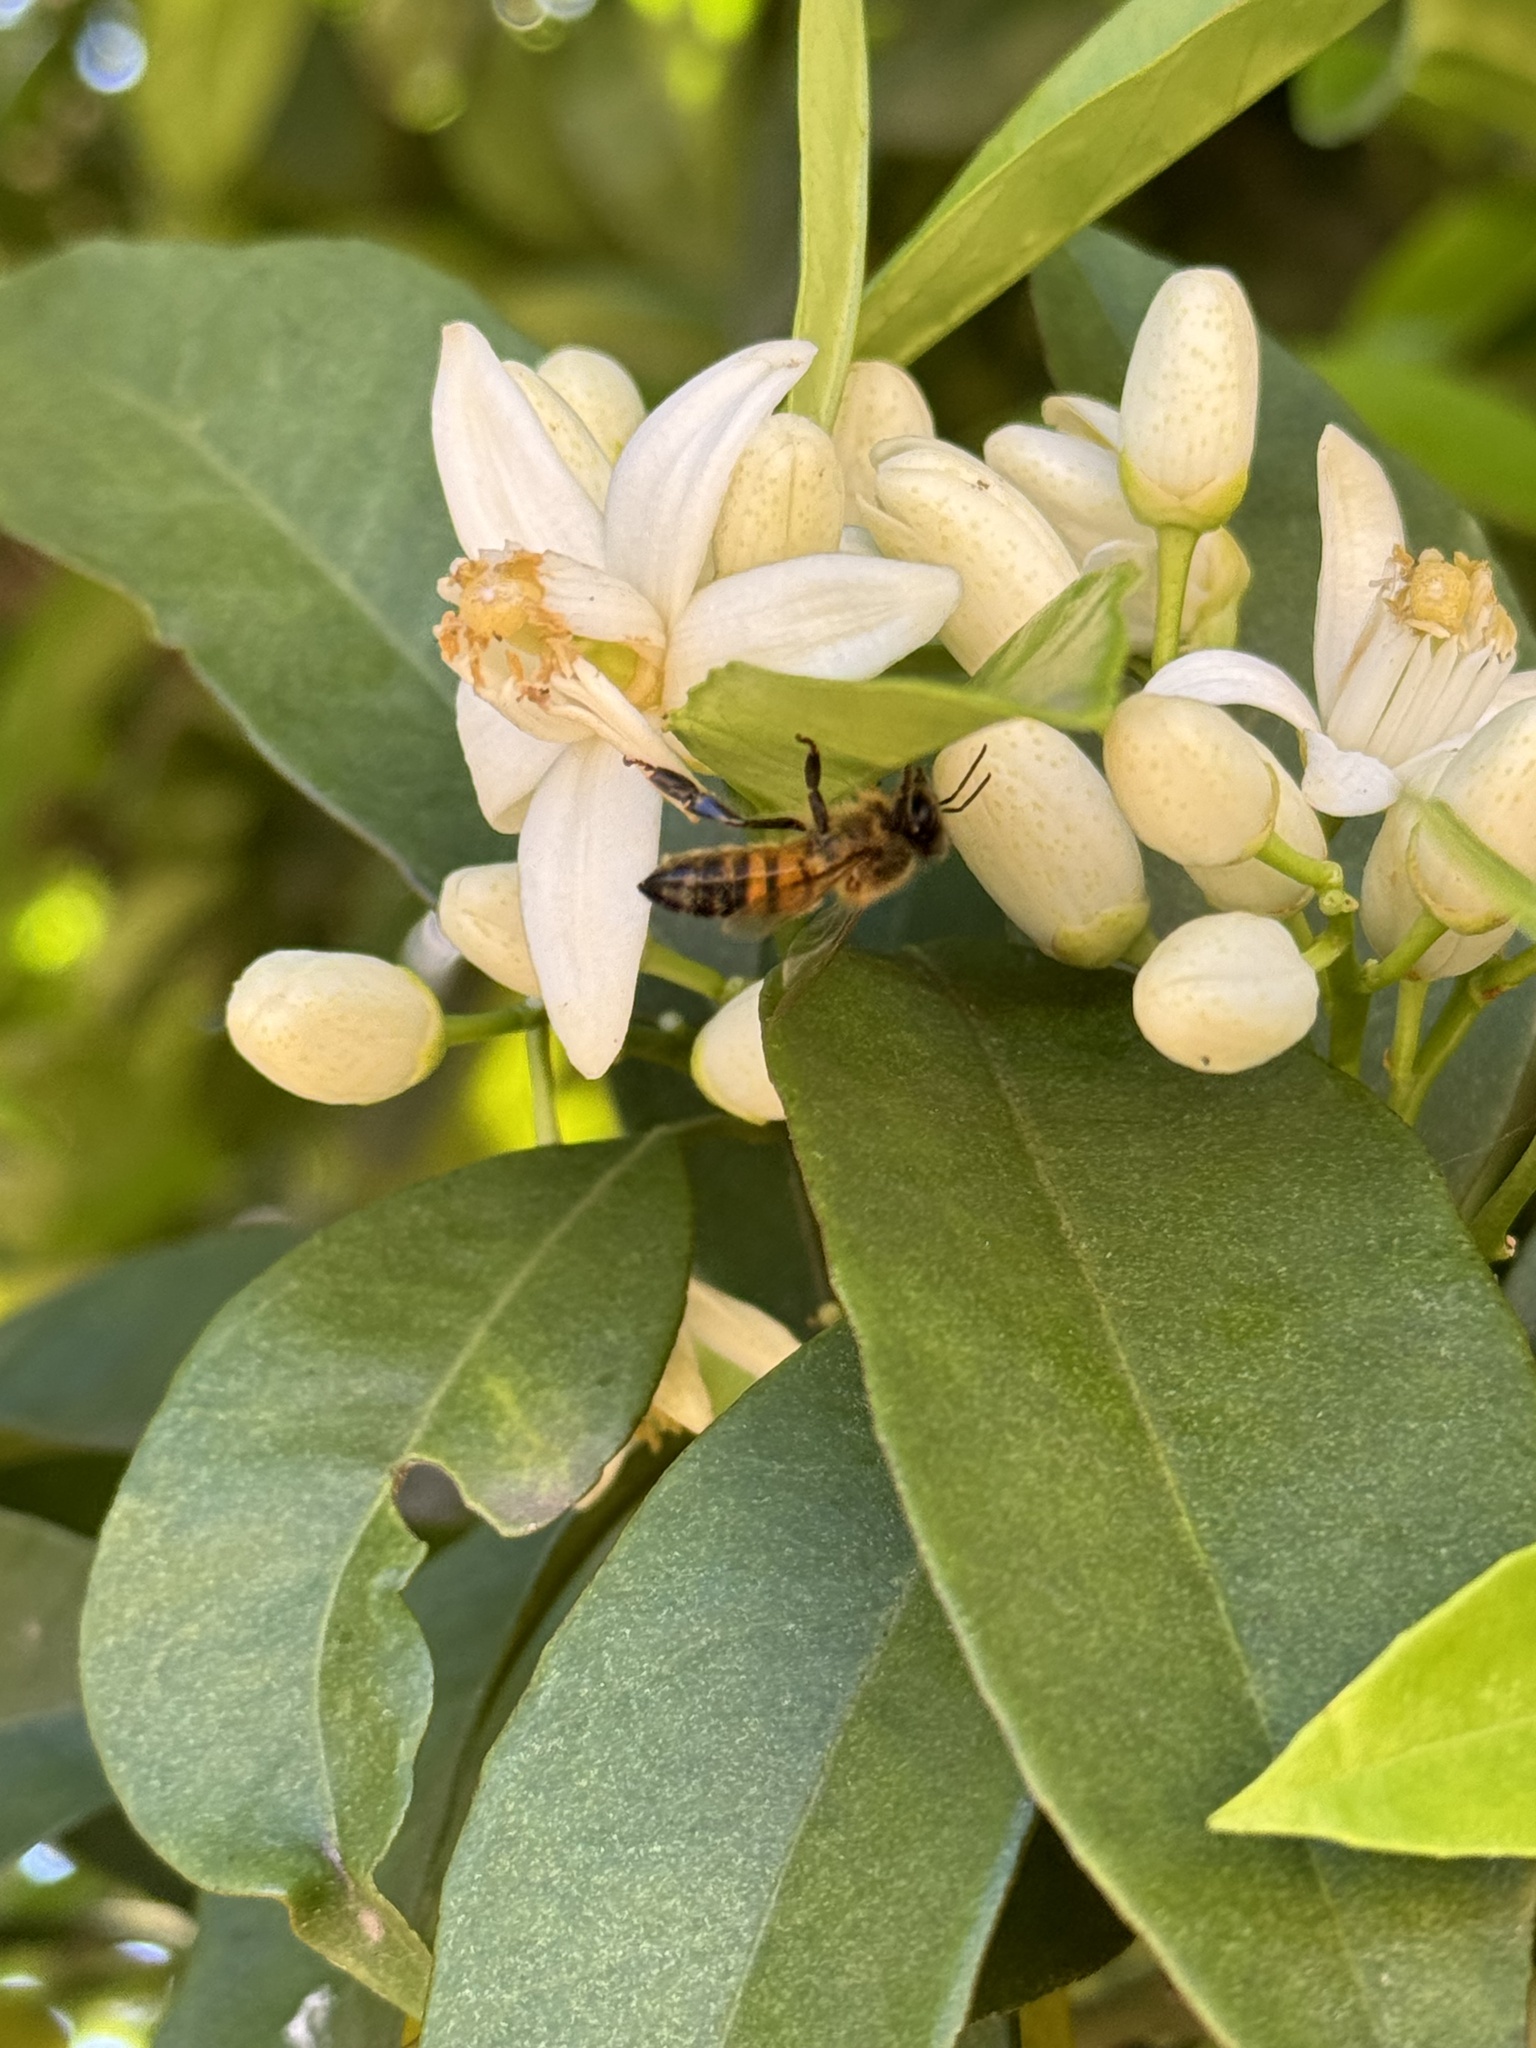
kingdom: Animalia
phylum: Arthropoda
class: Insecta
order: Hymenoptera
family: Apidae
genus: Apis
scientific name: Apis mellifera
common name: Honey bee
